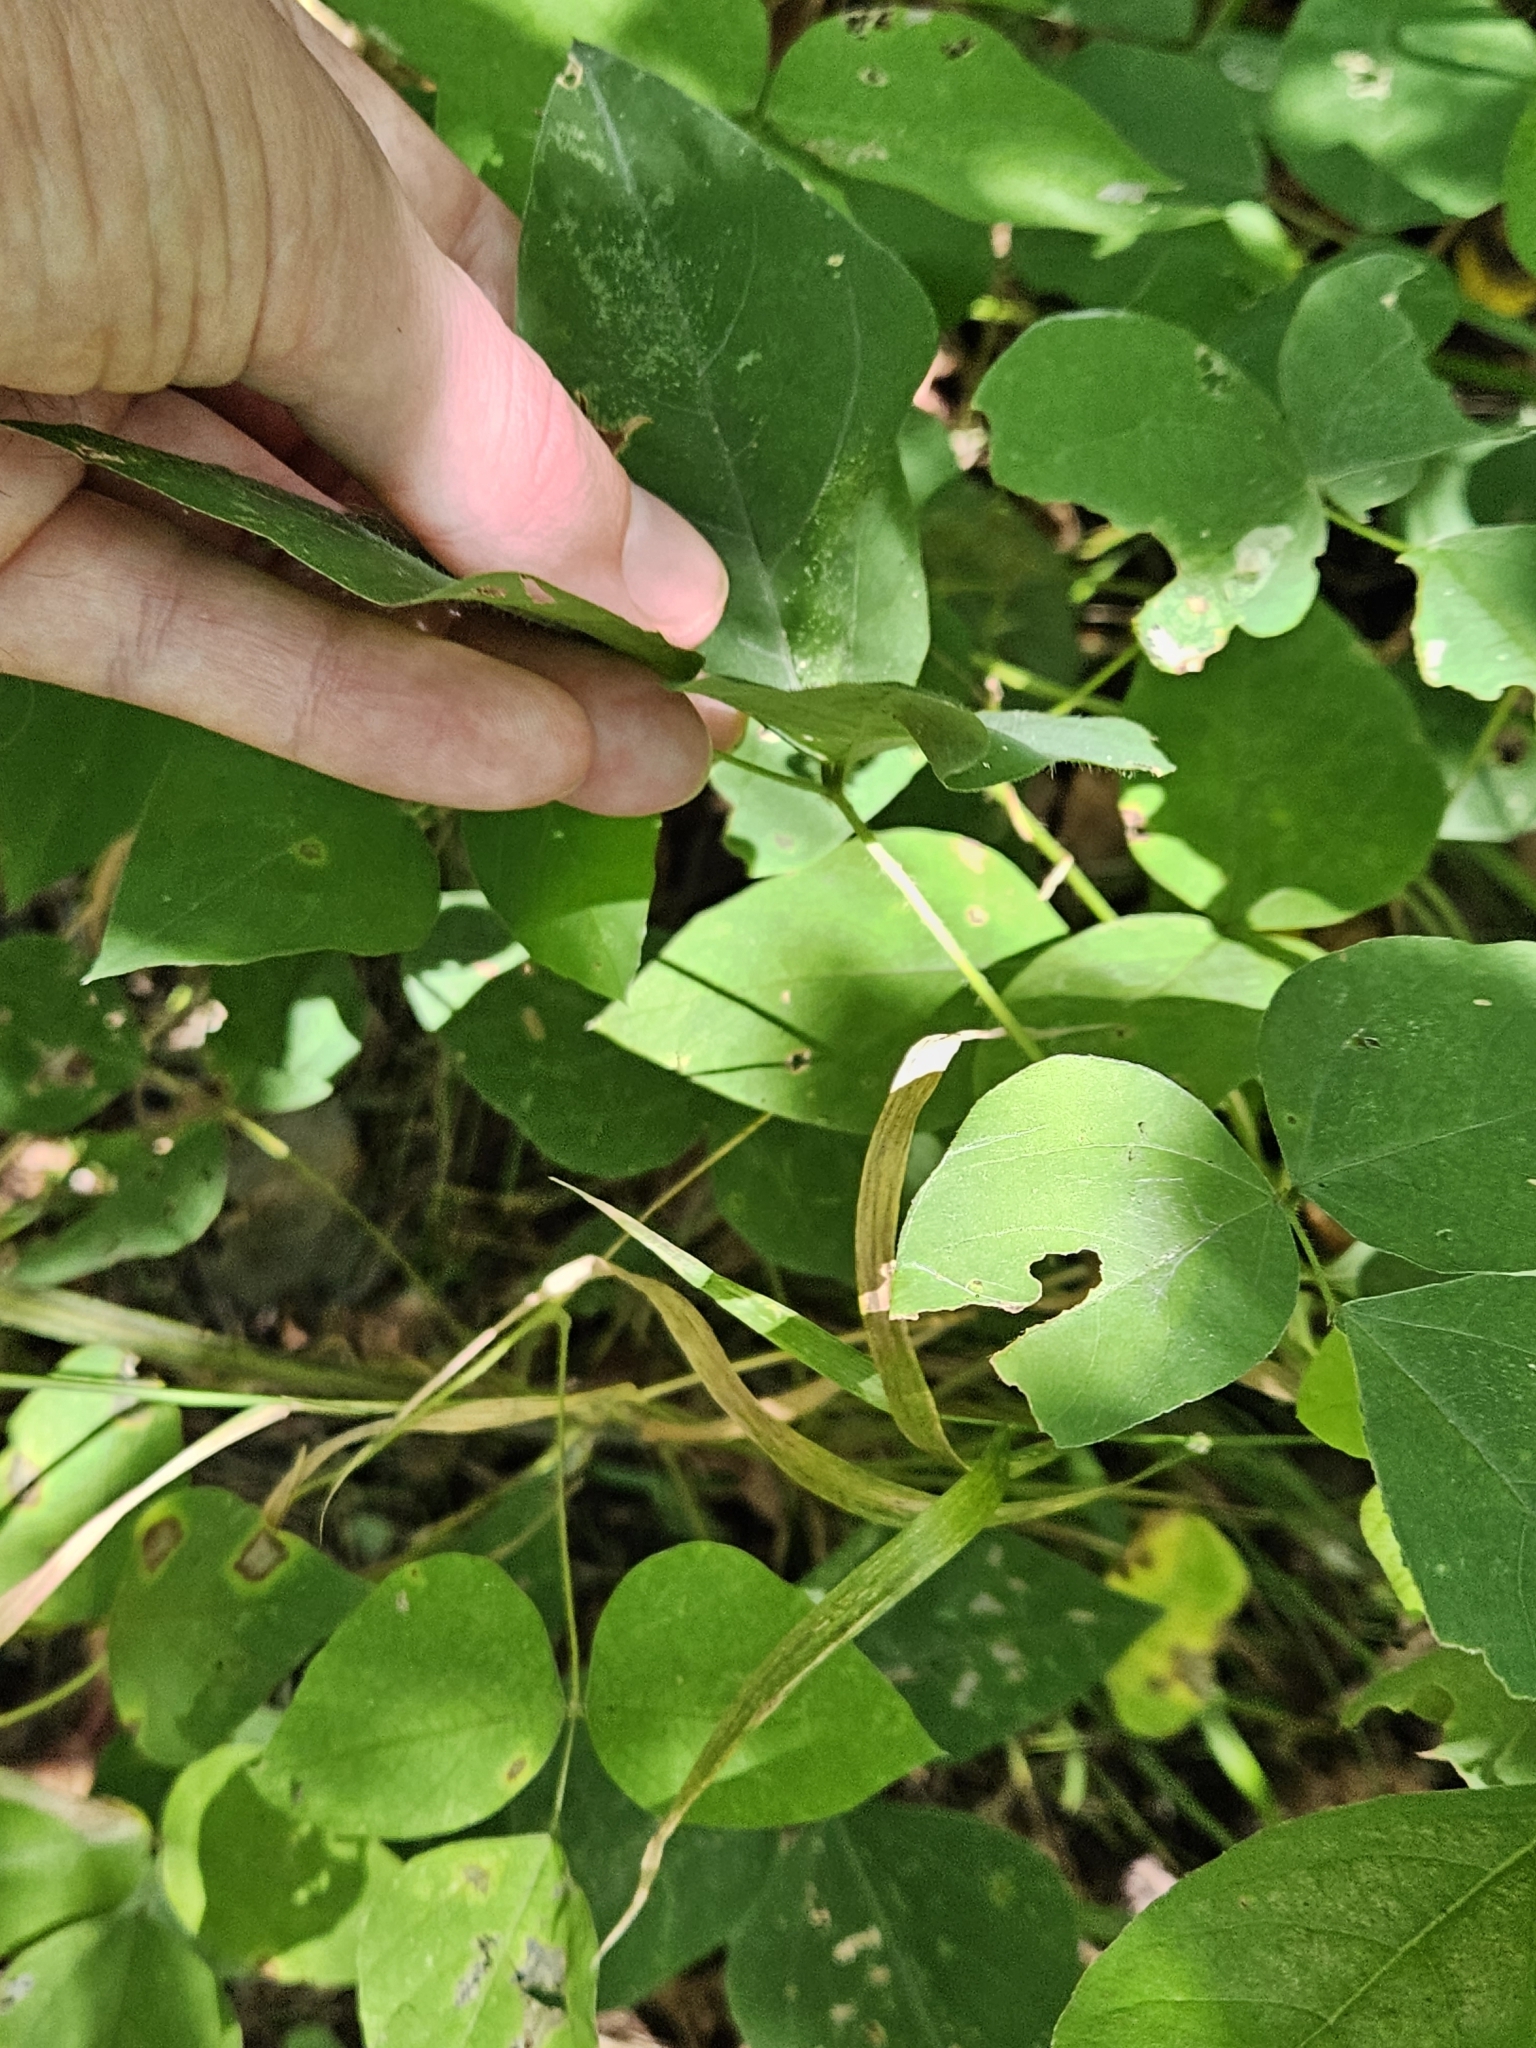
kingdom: Plantae
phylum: Tracheophyta
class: Magnoliopsida
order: Fabales
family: Fabaceae
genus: Amphicarpaea
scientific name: Amphicarpaea bracteata
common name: American hog peanut
